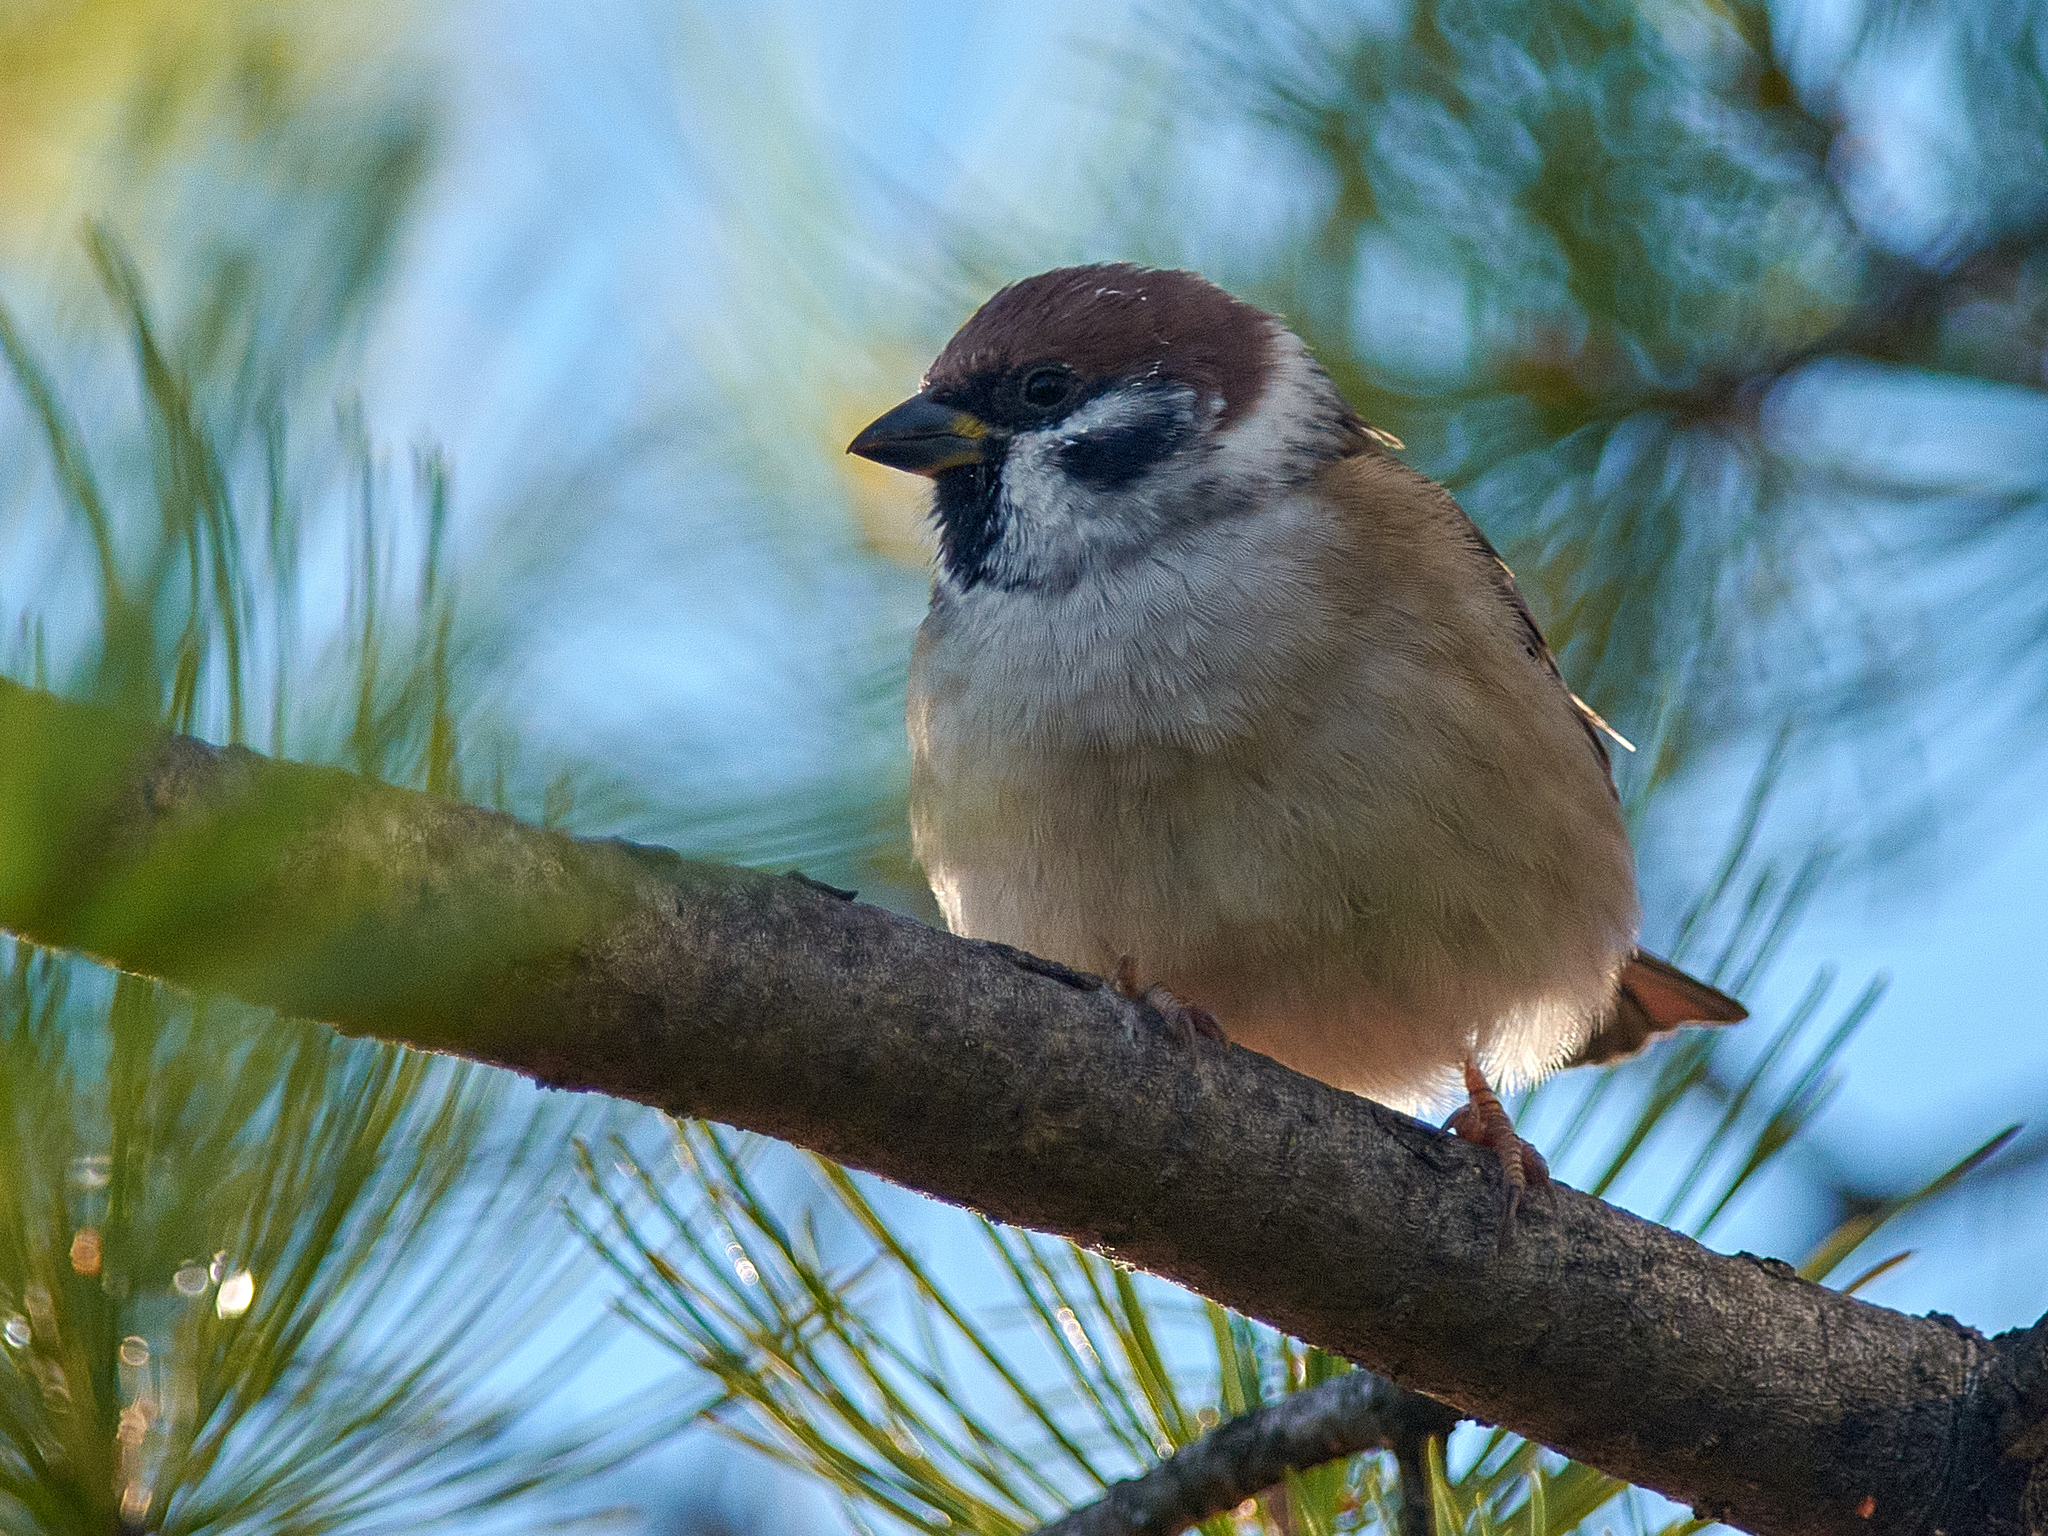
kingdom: Animalia
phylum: Chordata
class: Aves
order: Passeriformes
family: Passeridae
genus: Passer
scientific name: Passer montanus
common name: Eurasian tree sparrow
